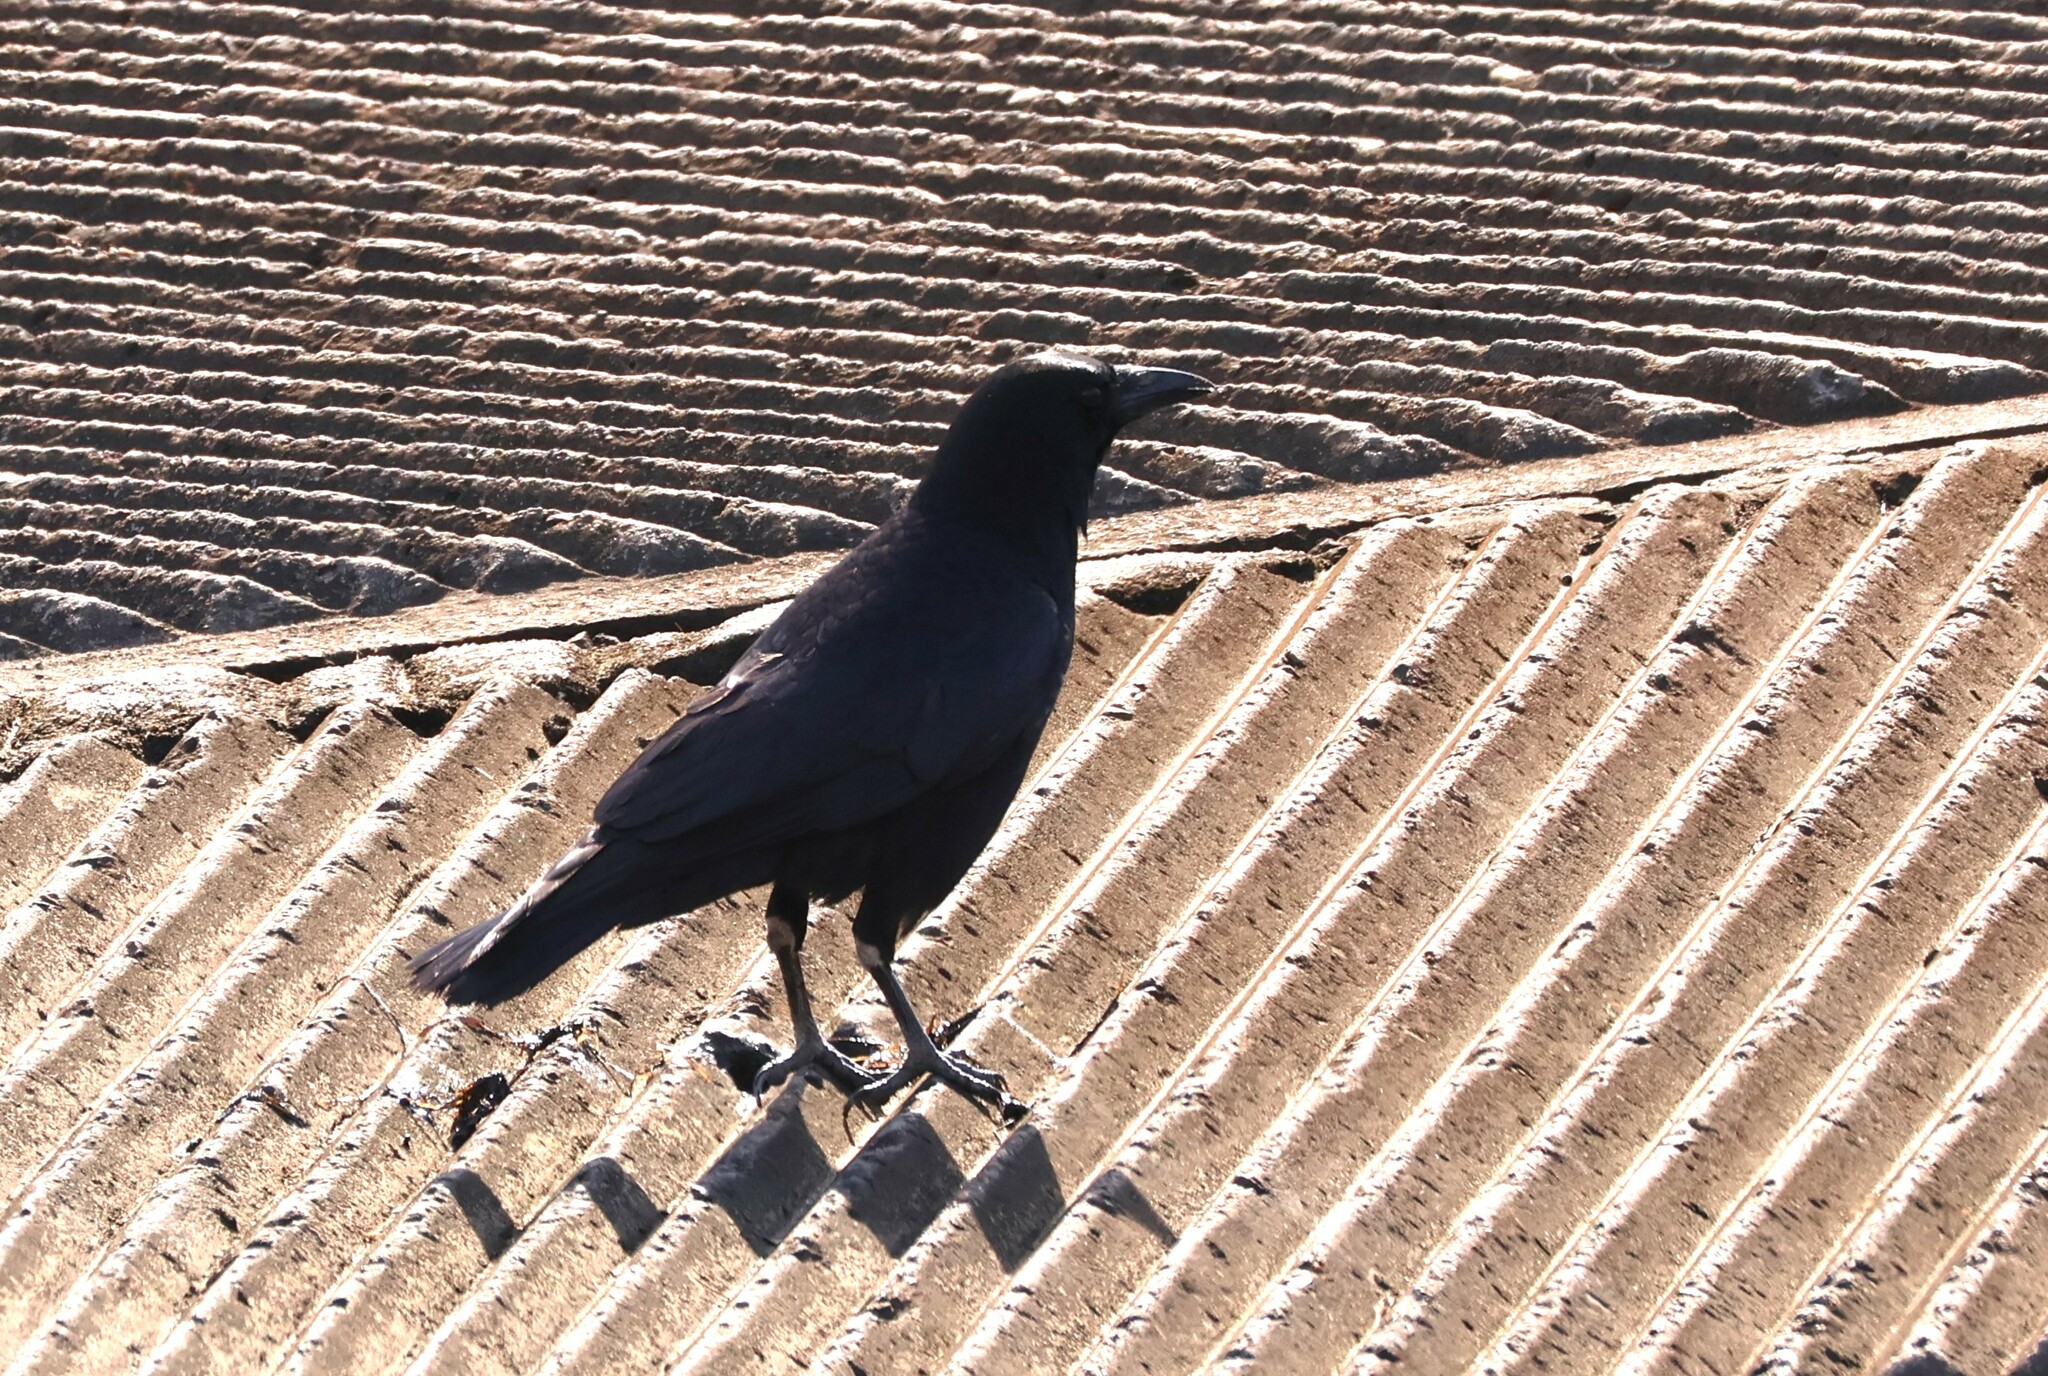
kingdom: Animalia
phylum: Chordata
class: Aves
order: Passeriformes
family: Corvidae
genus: Corvus
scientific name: Corvus brachyrhynchos
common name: American crow
